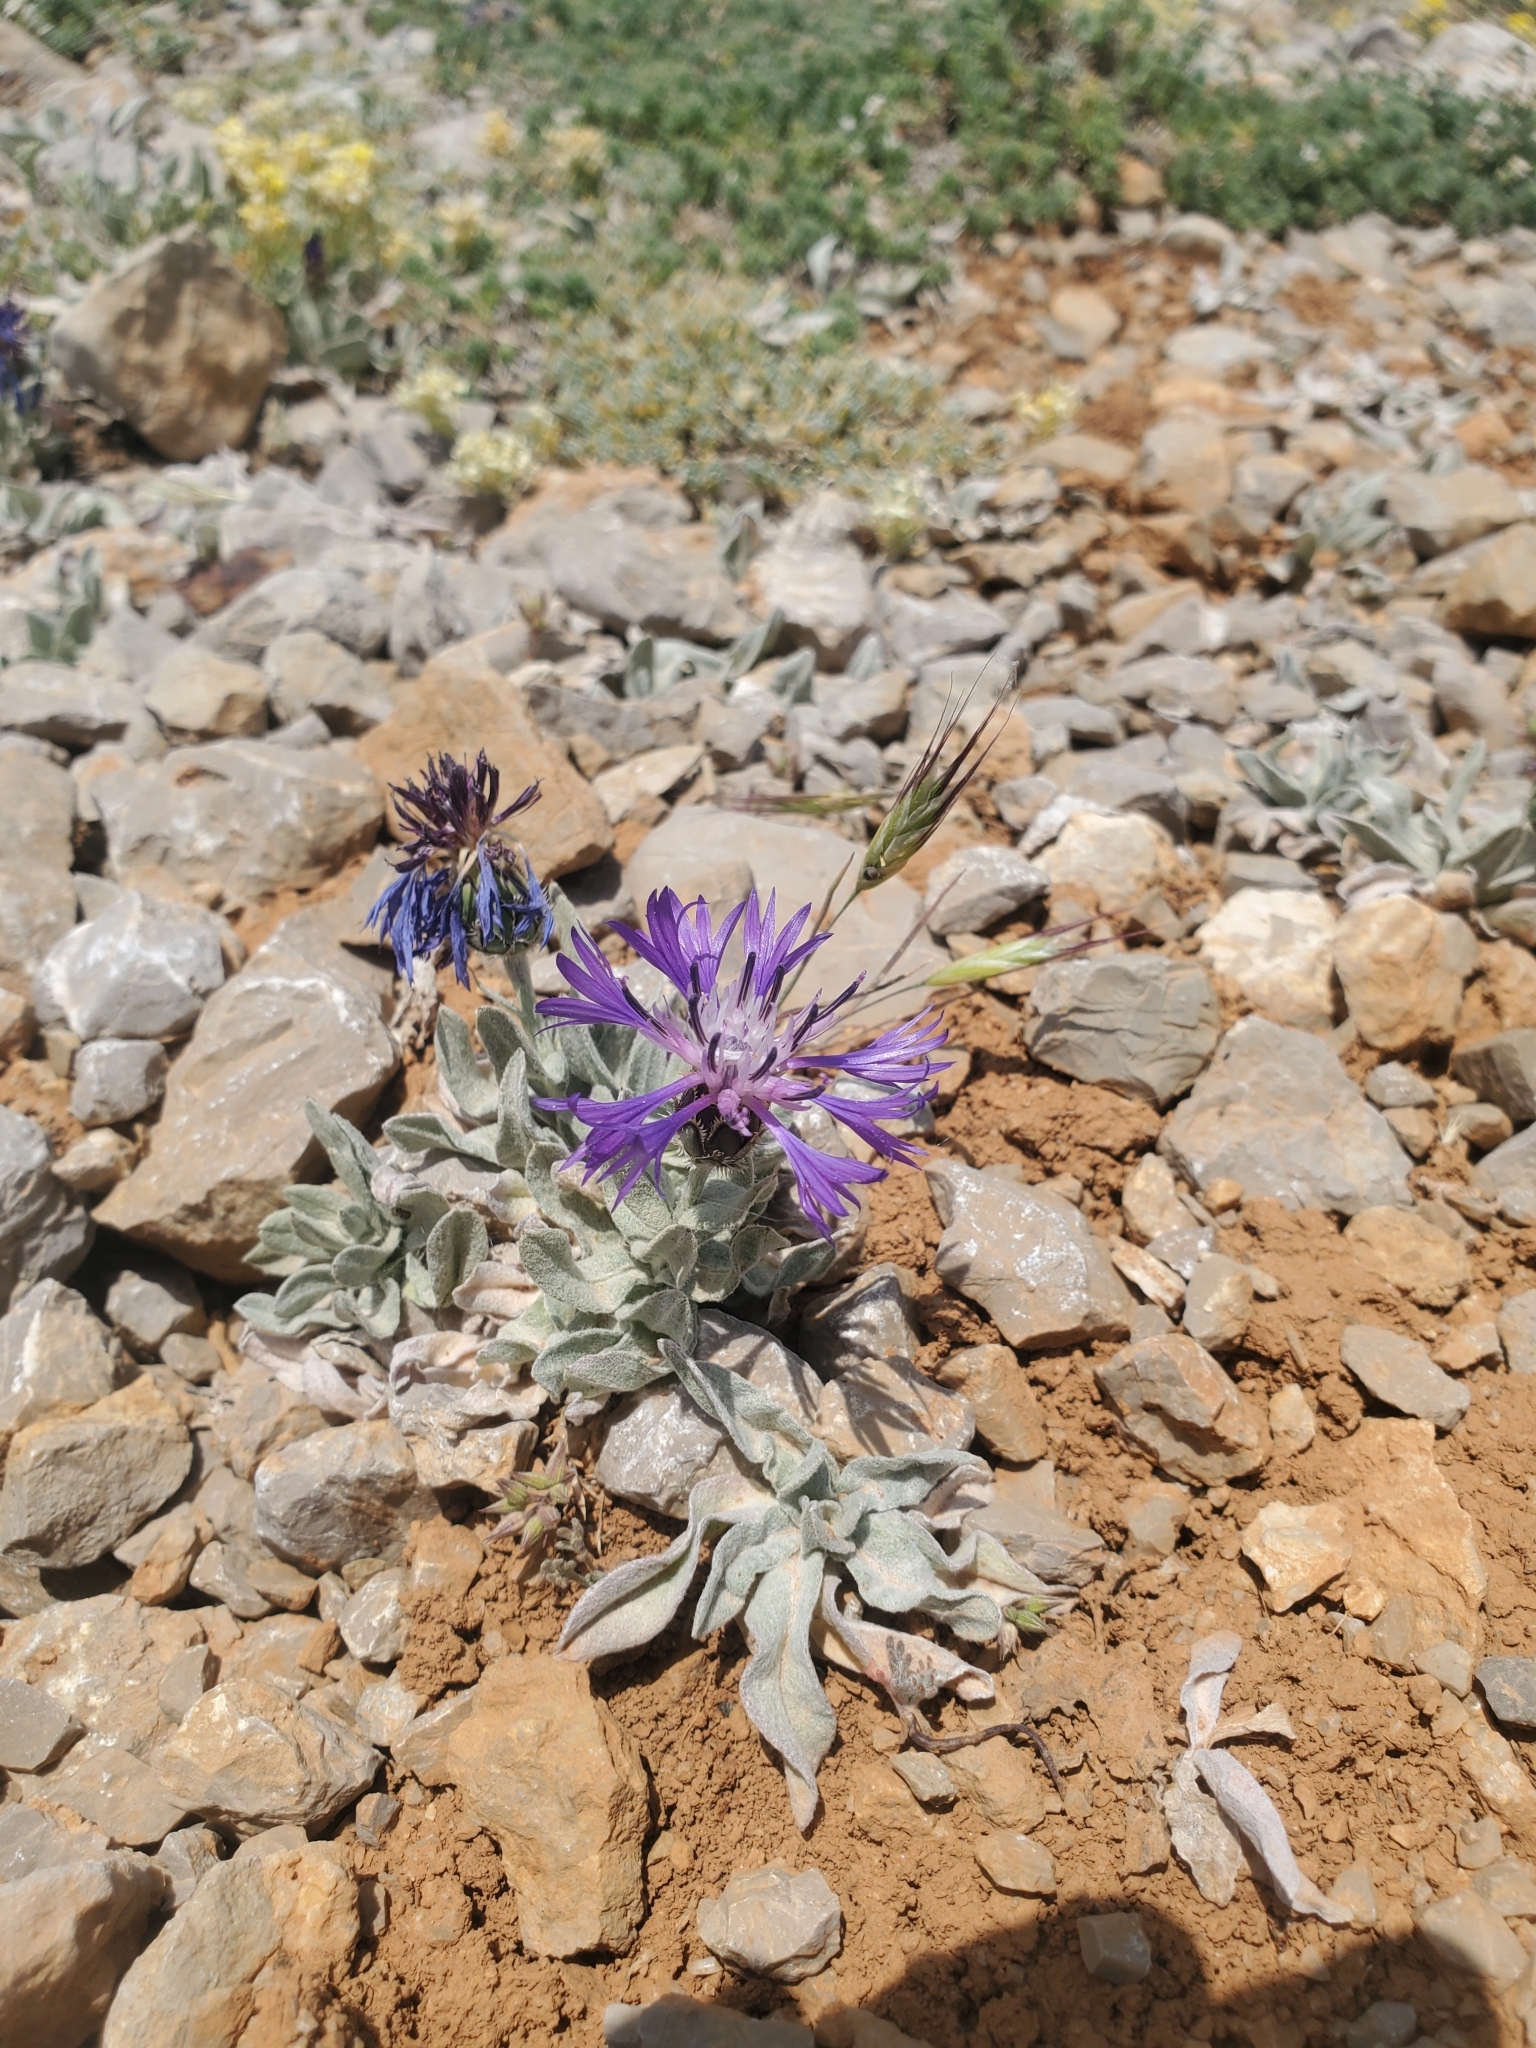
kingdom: Plantae
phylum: Tracheophyta
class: Magnoliopsida
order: Asterales
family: Asteraceae
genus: Centaurea
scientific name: Centaurea triumfettii
